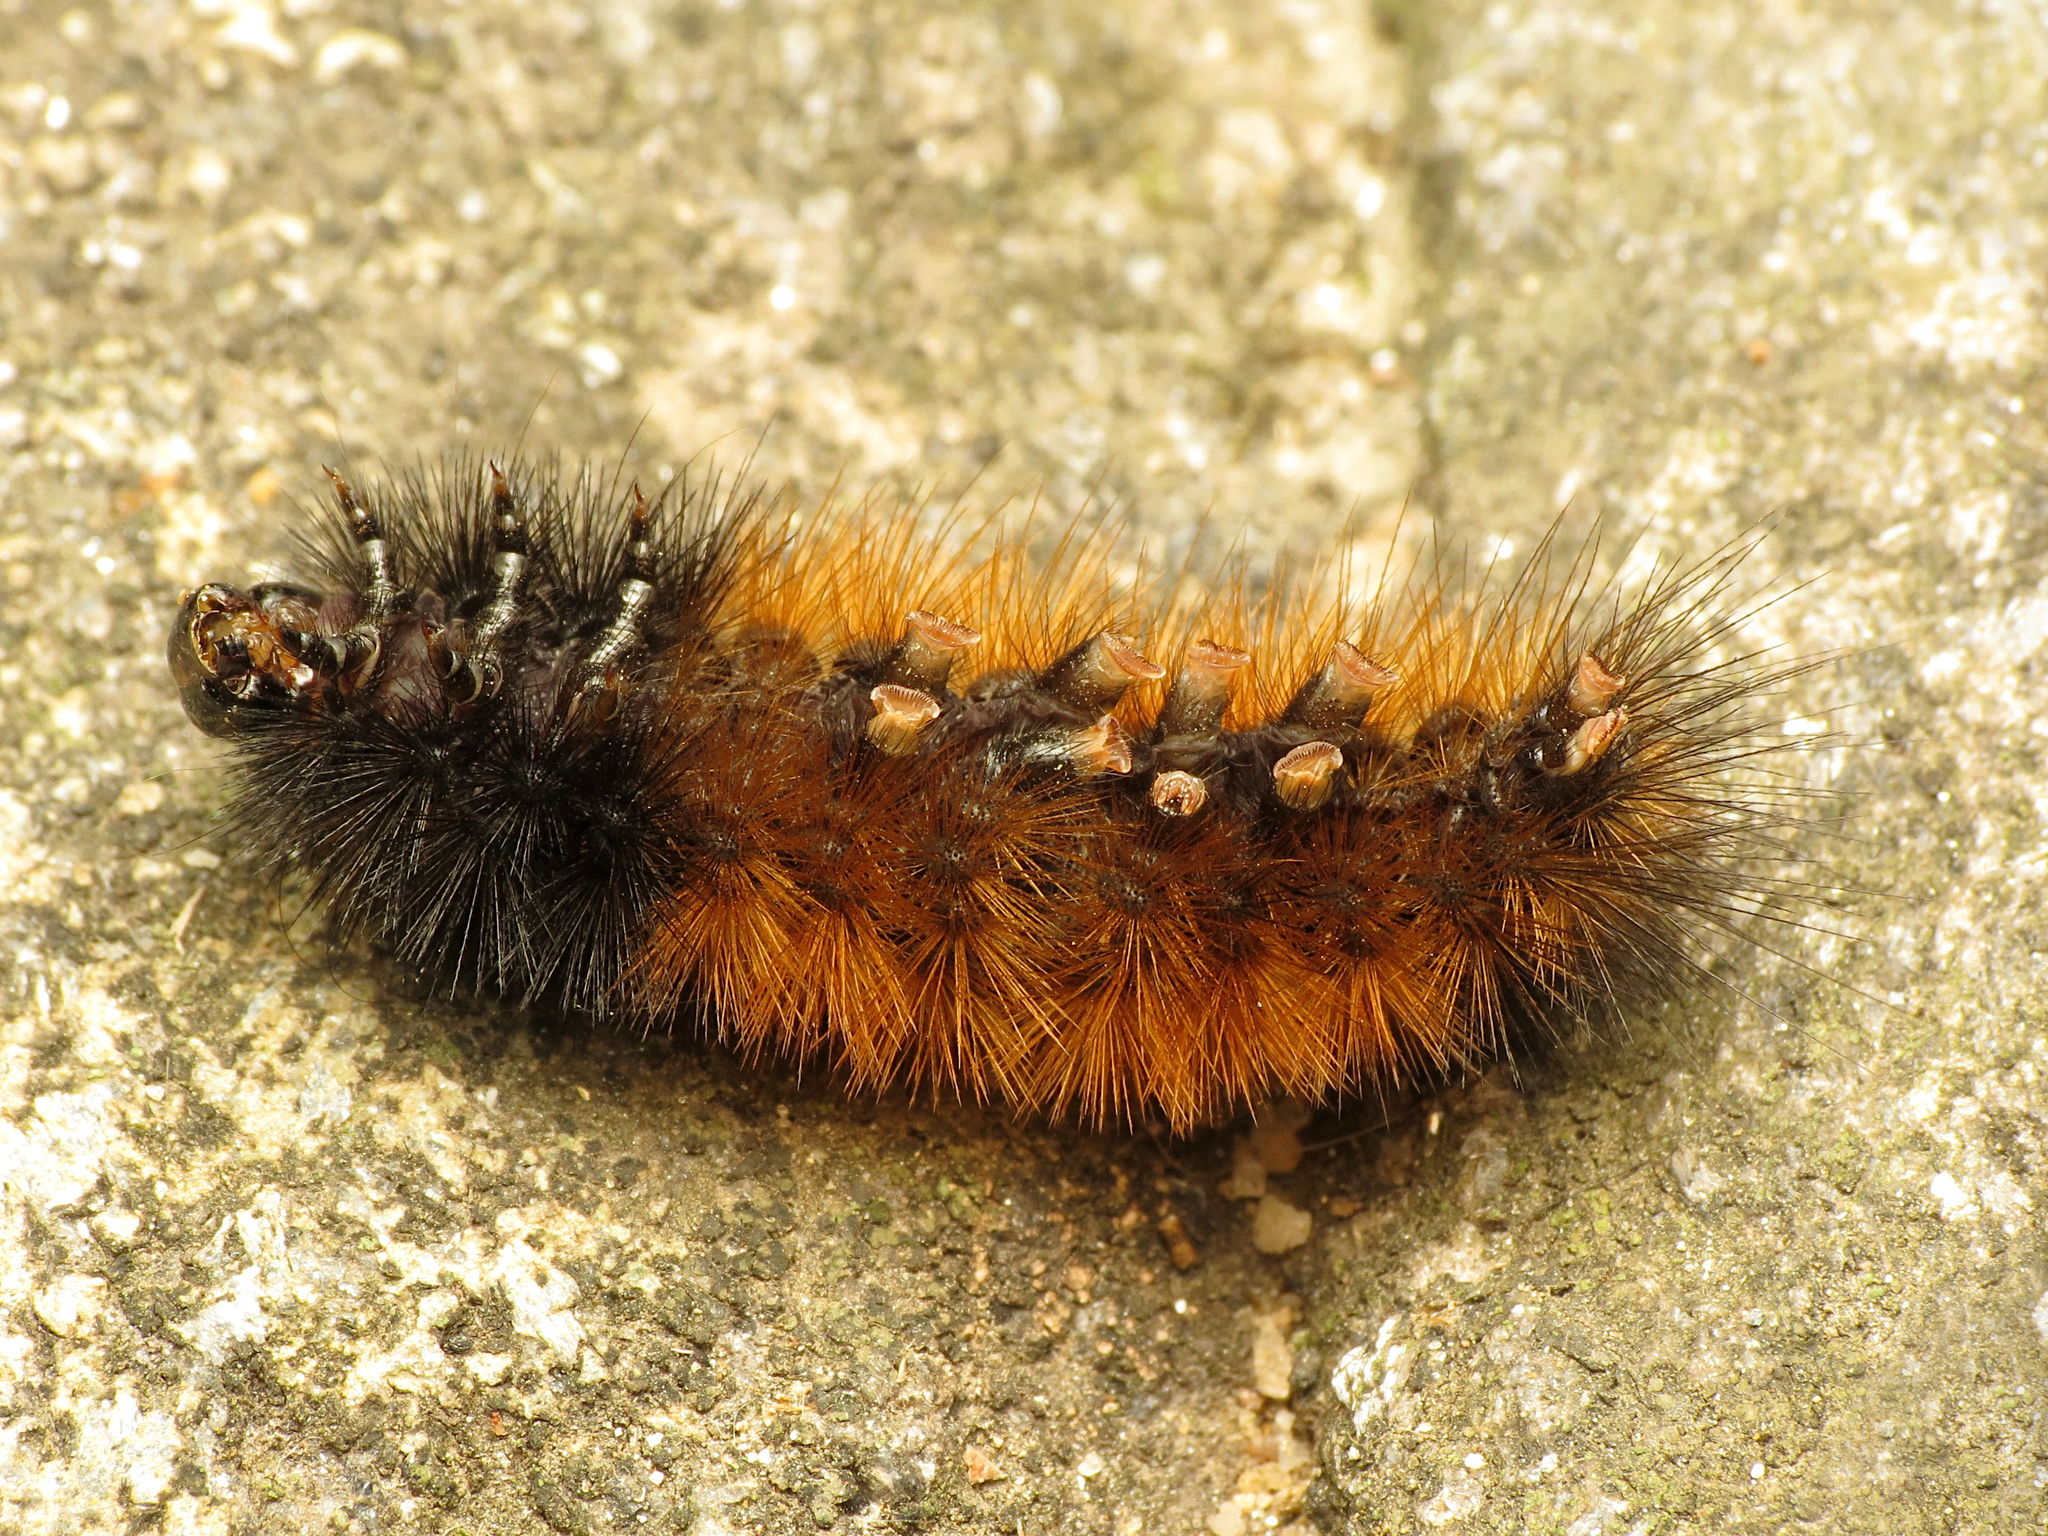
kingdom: Animalia
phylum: Arthropoda
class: Insecta
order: Lepidoptera
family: Erebidae
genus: Pyrrharctia
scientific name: Pyrrharctia isabella
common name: Isabella tiger moth
